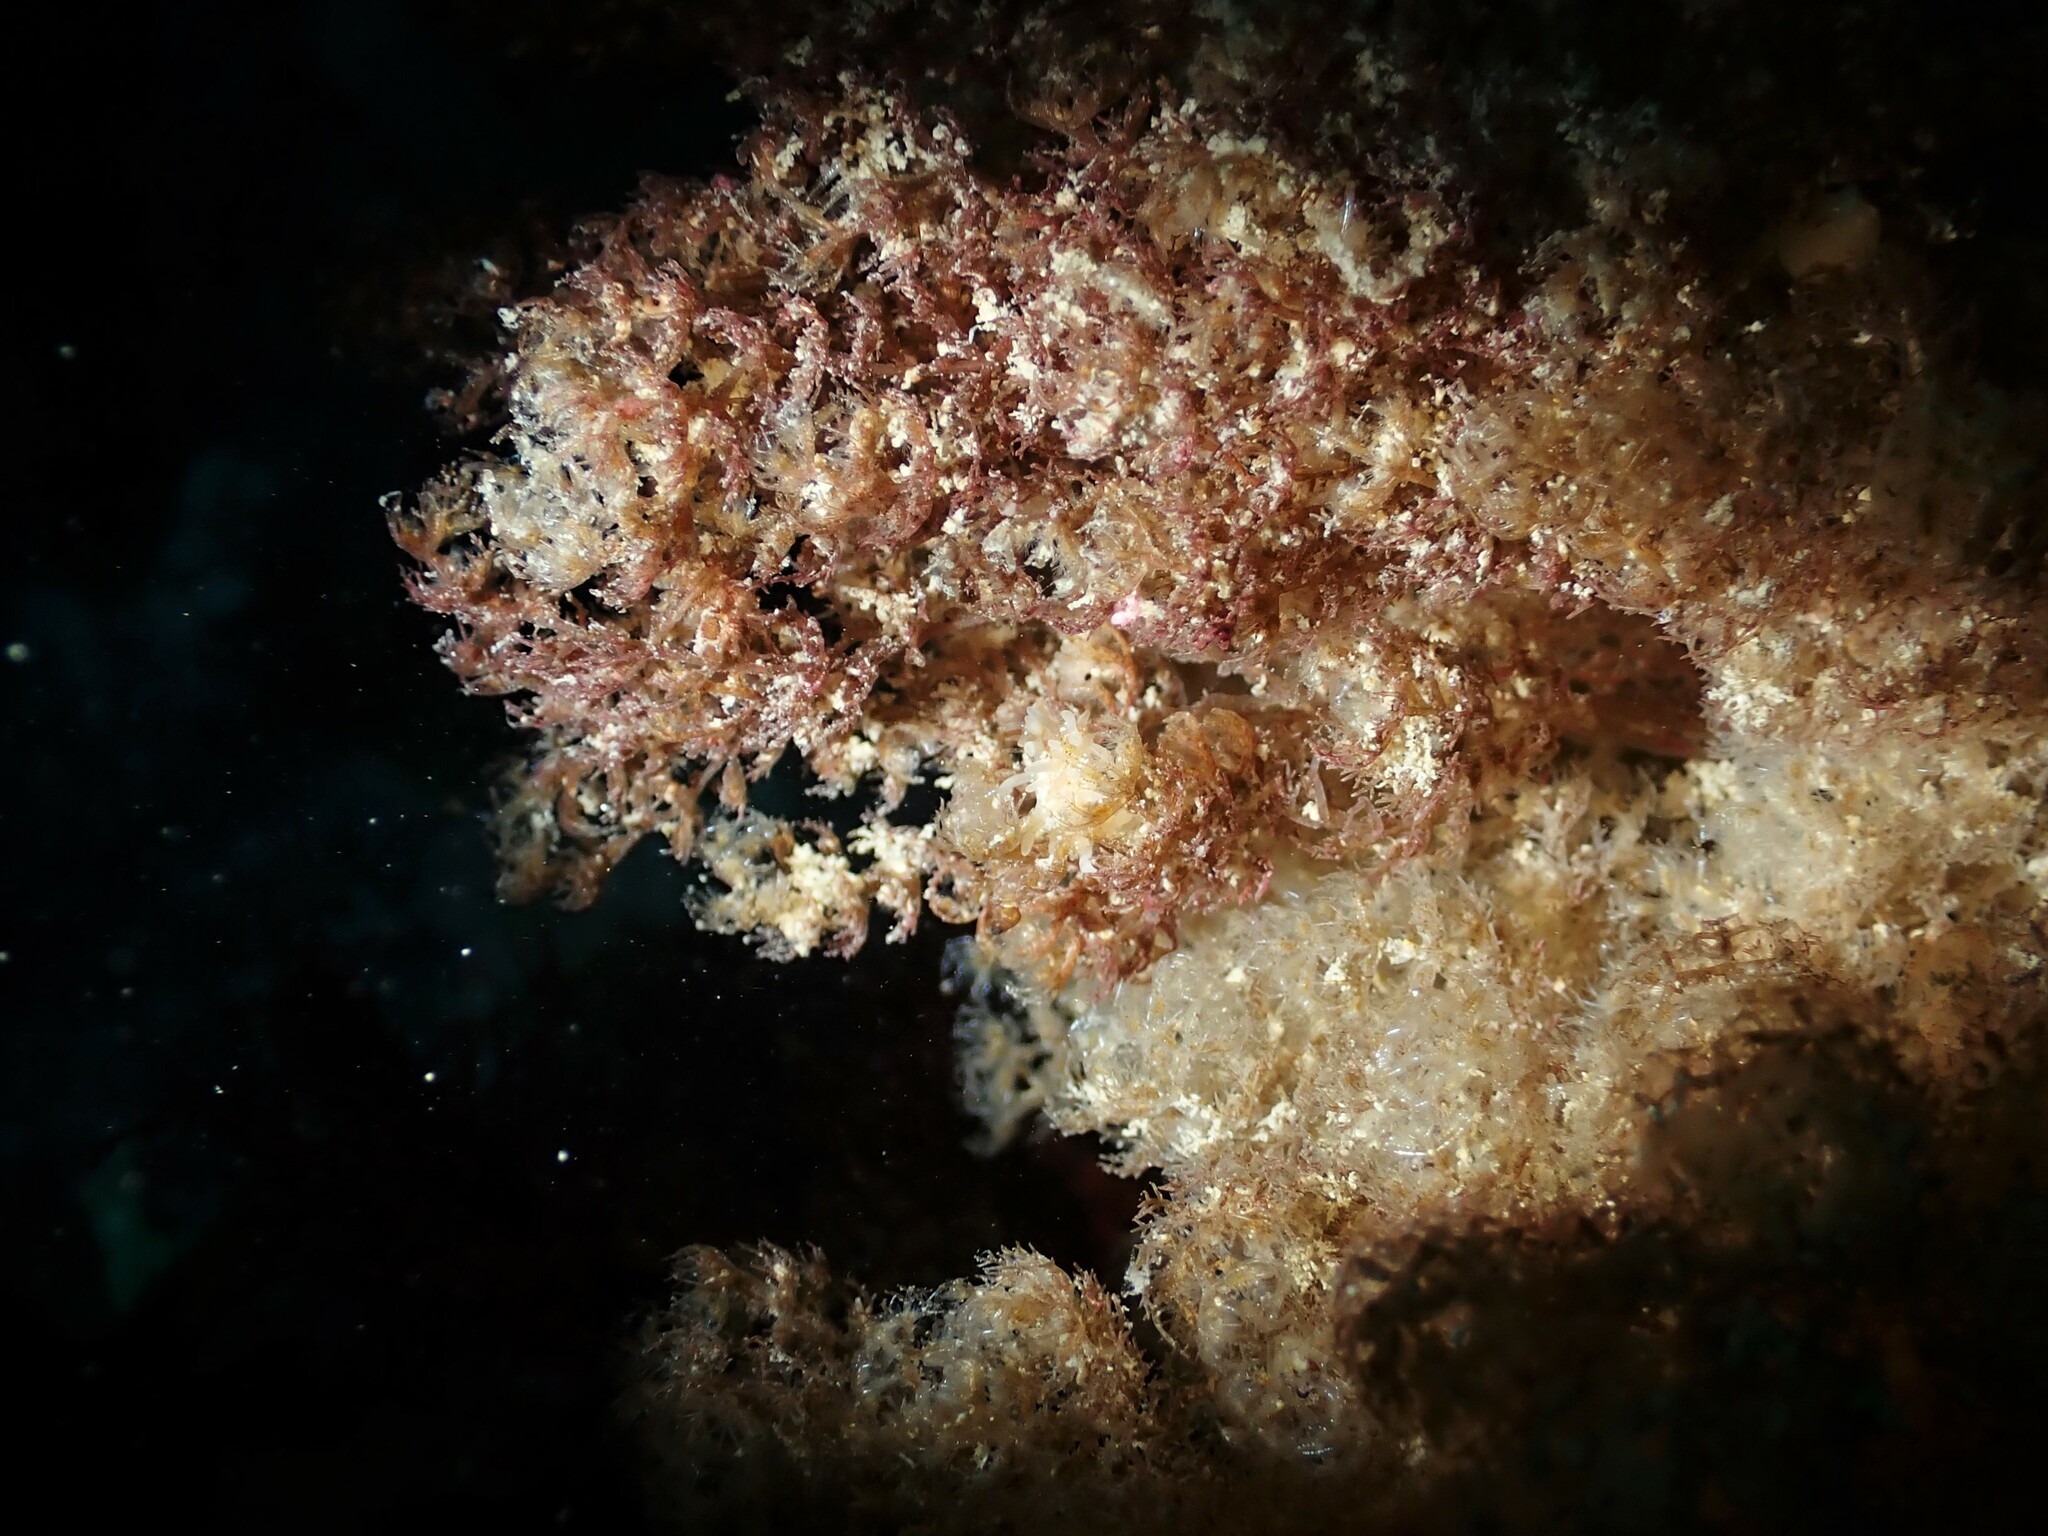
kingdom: Animalia
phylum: Mollusca
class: Gastropoda
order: Nudibranchia
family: Goniodorididae
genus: Okenia
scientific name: Okenia
